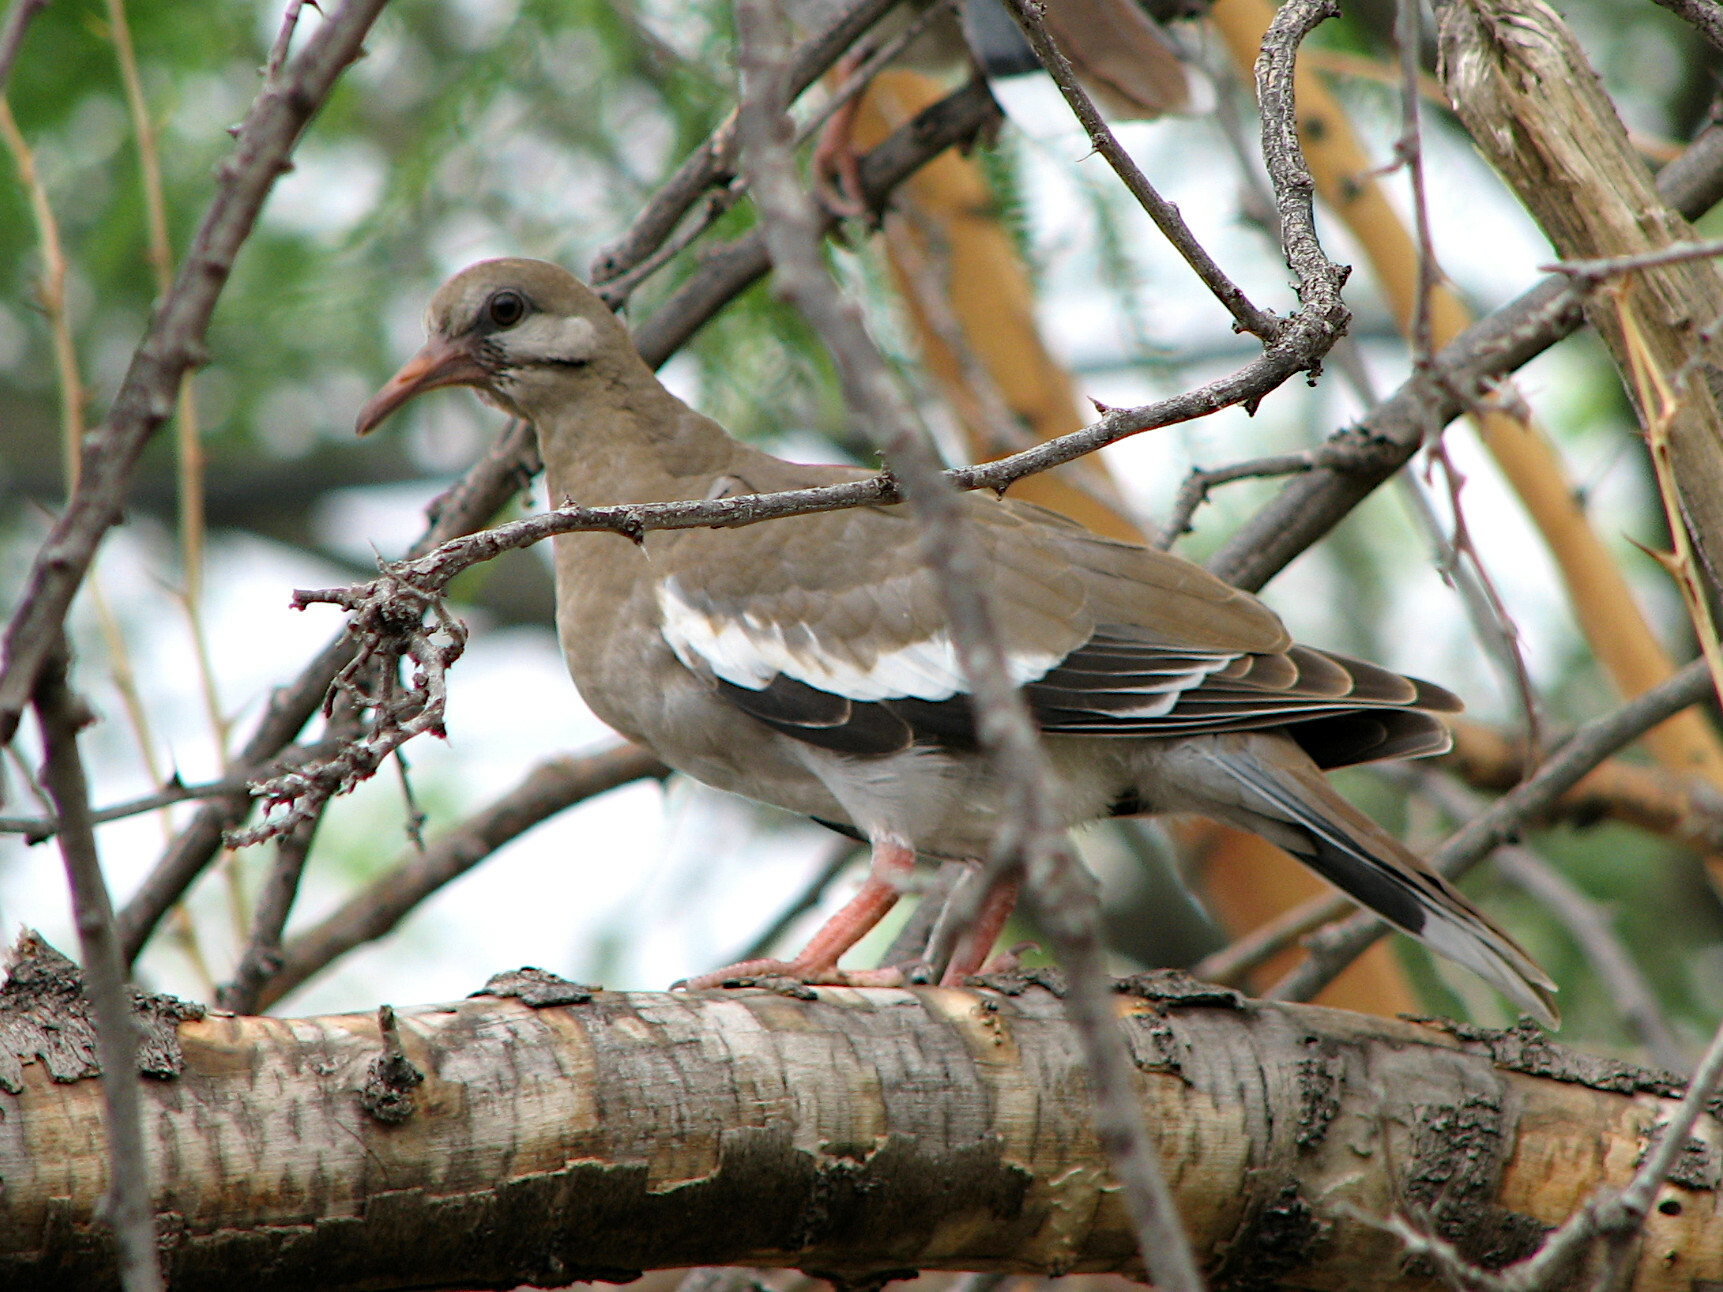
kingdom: Animalia
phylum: Chordata
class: Aves
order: Columbiformes
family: Columbidae
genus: Zenaida
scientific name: Zenaida asiatica
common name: White-winged dove
